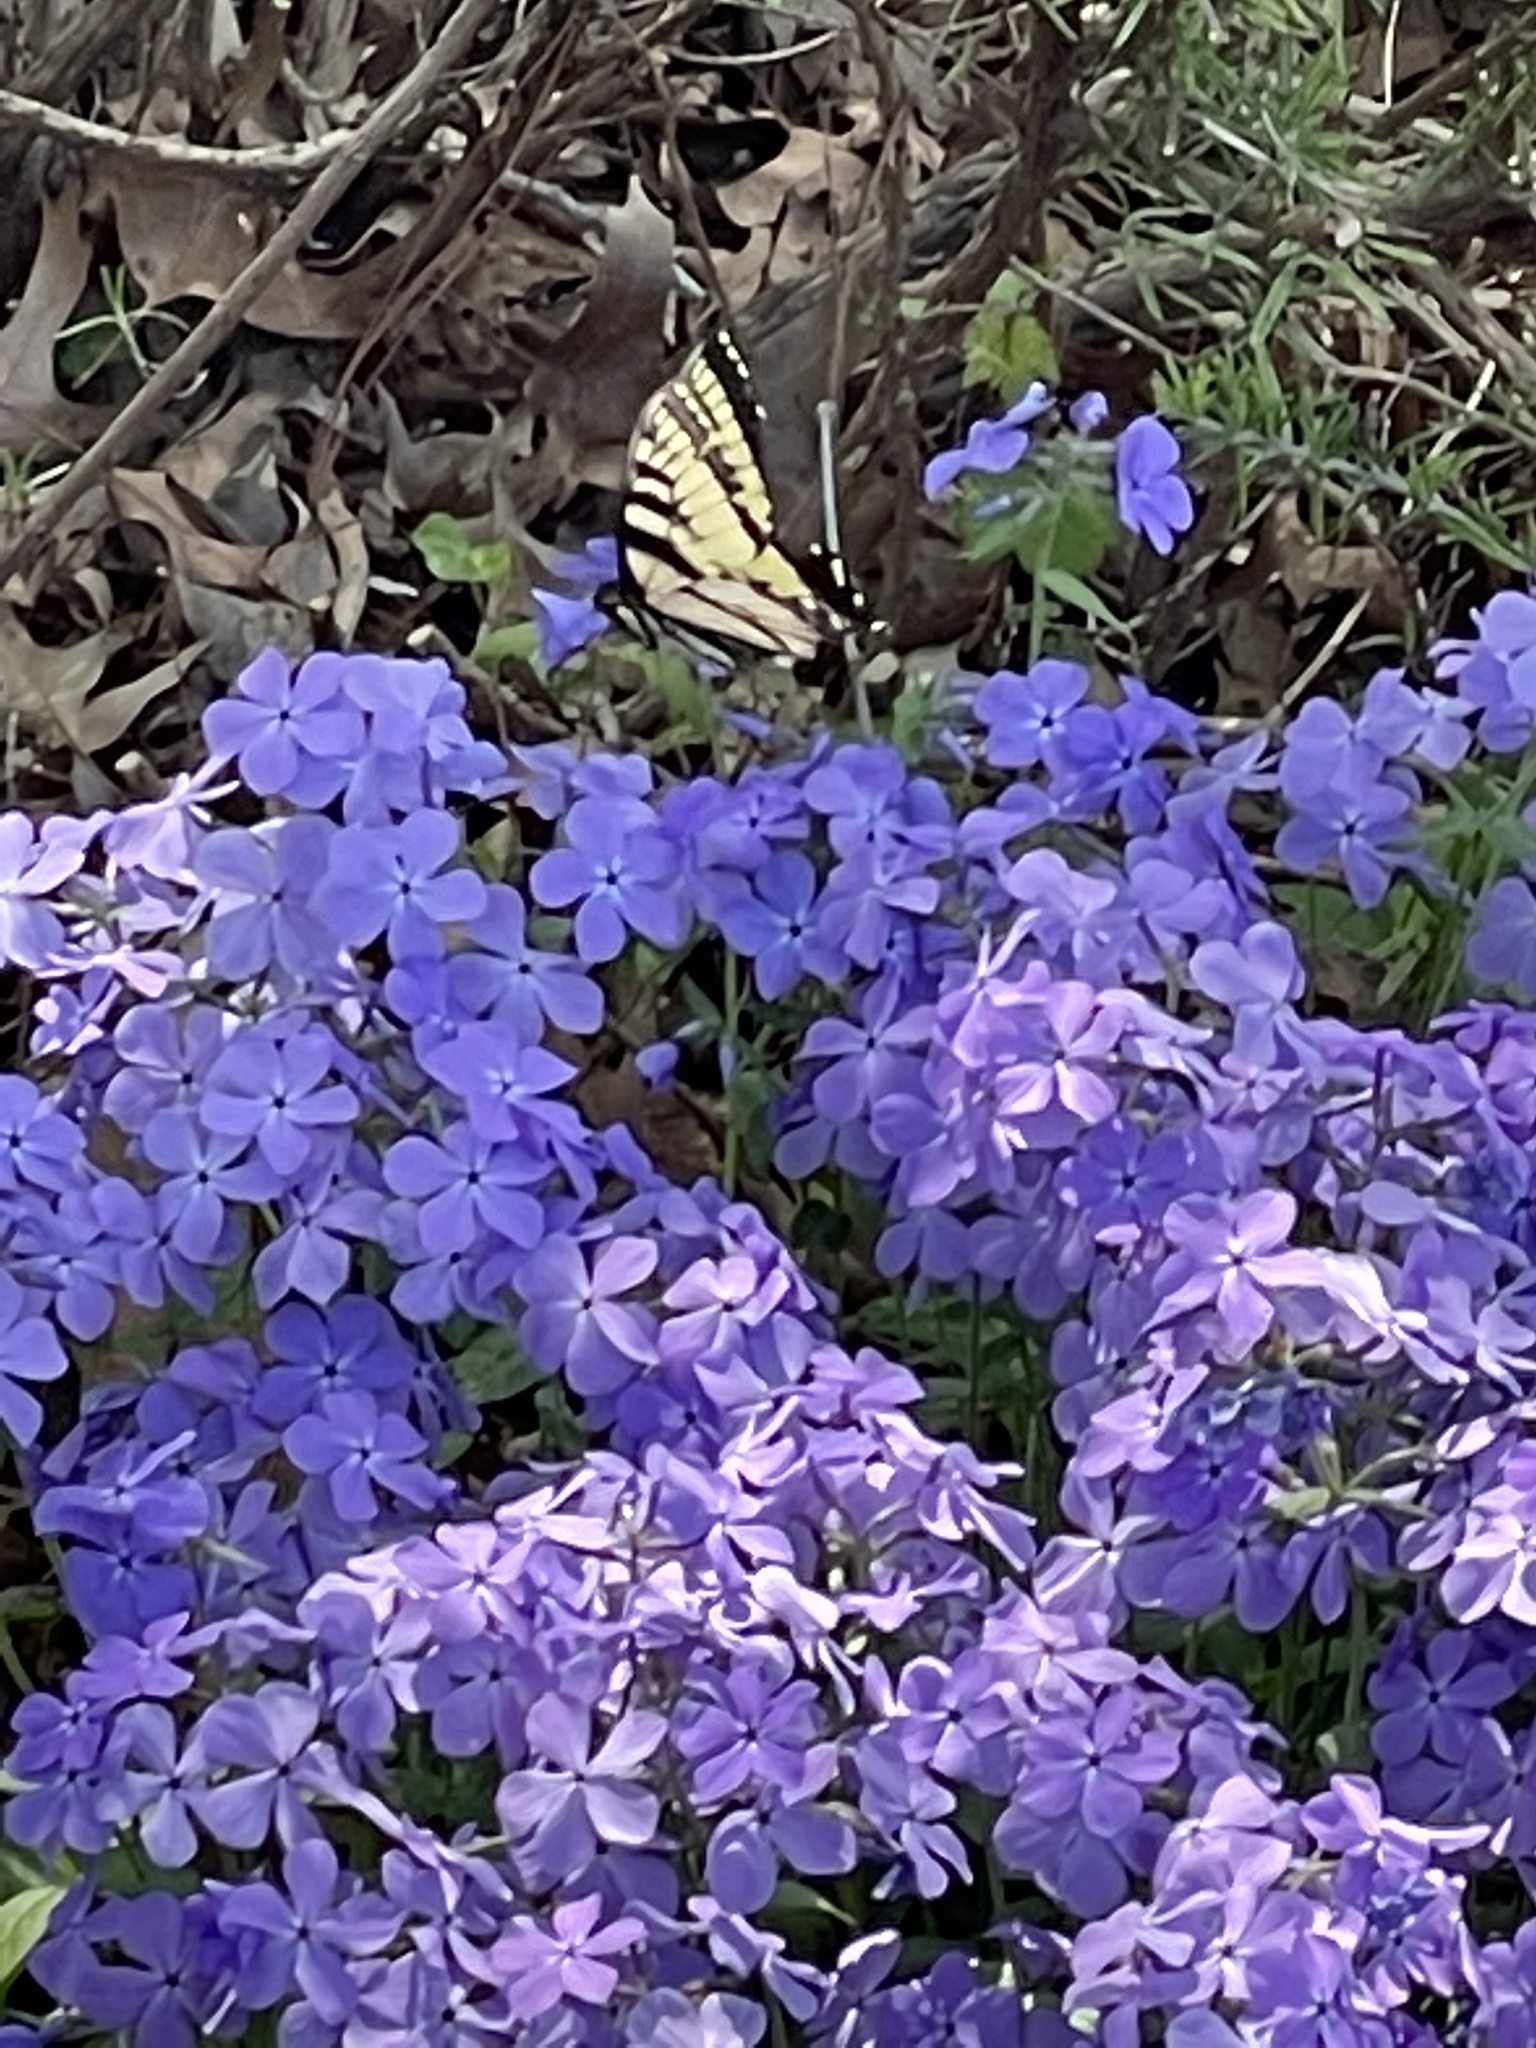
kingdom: Animalia
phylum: Arthropoda
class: Insecta
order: Lepidoptera
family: Papilionidae
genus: Papilio
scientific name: Papilio glaucus
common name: Tiger swallowtail
